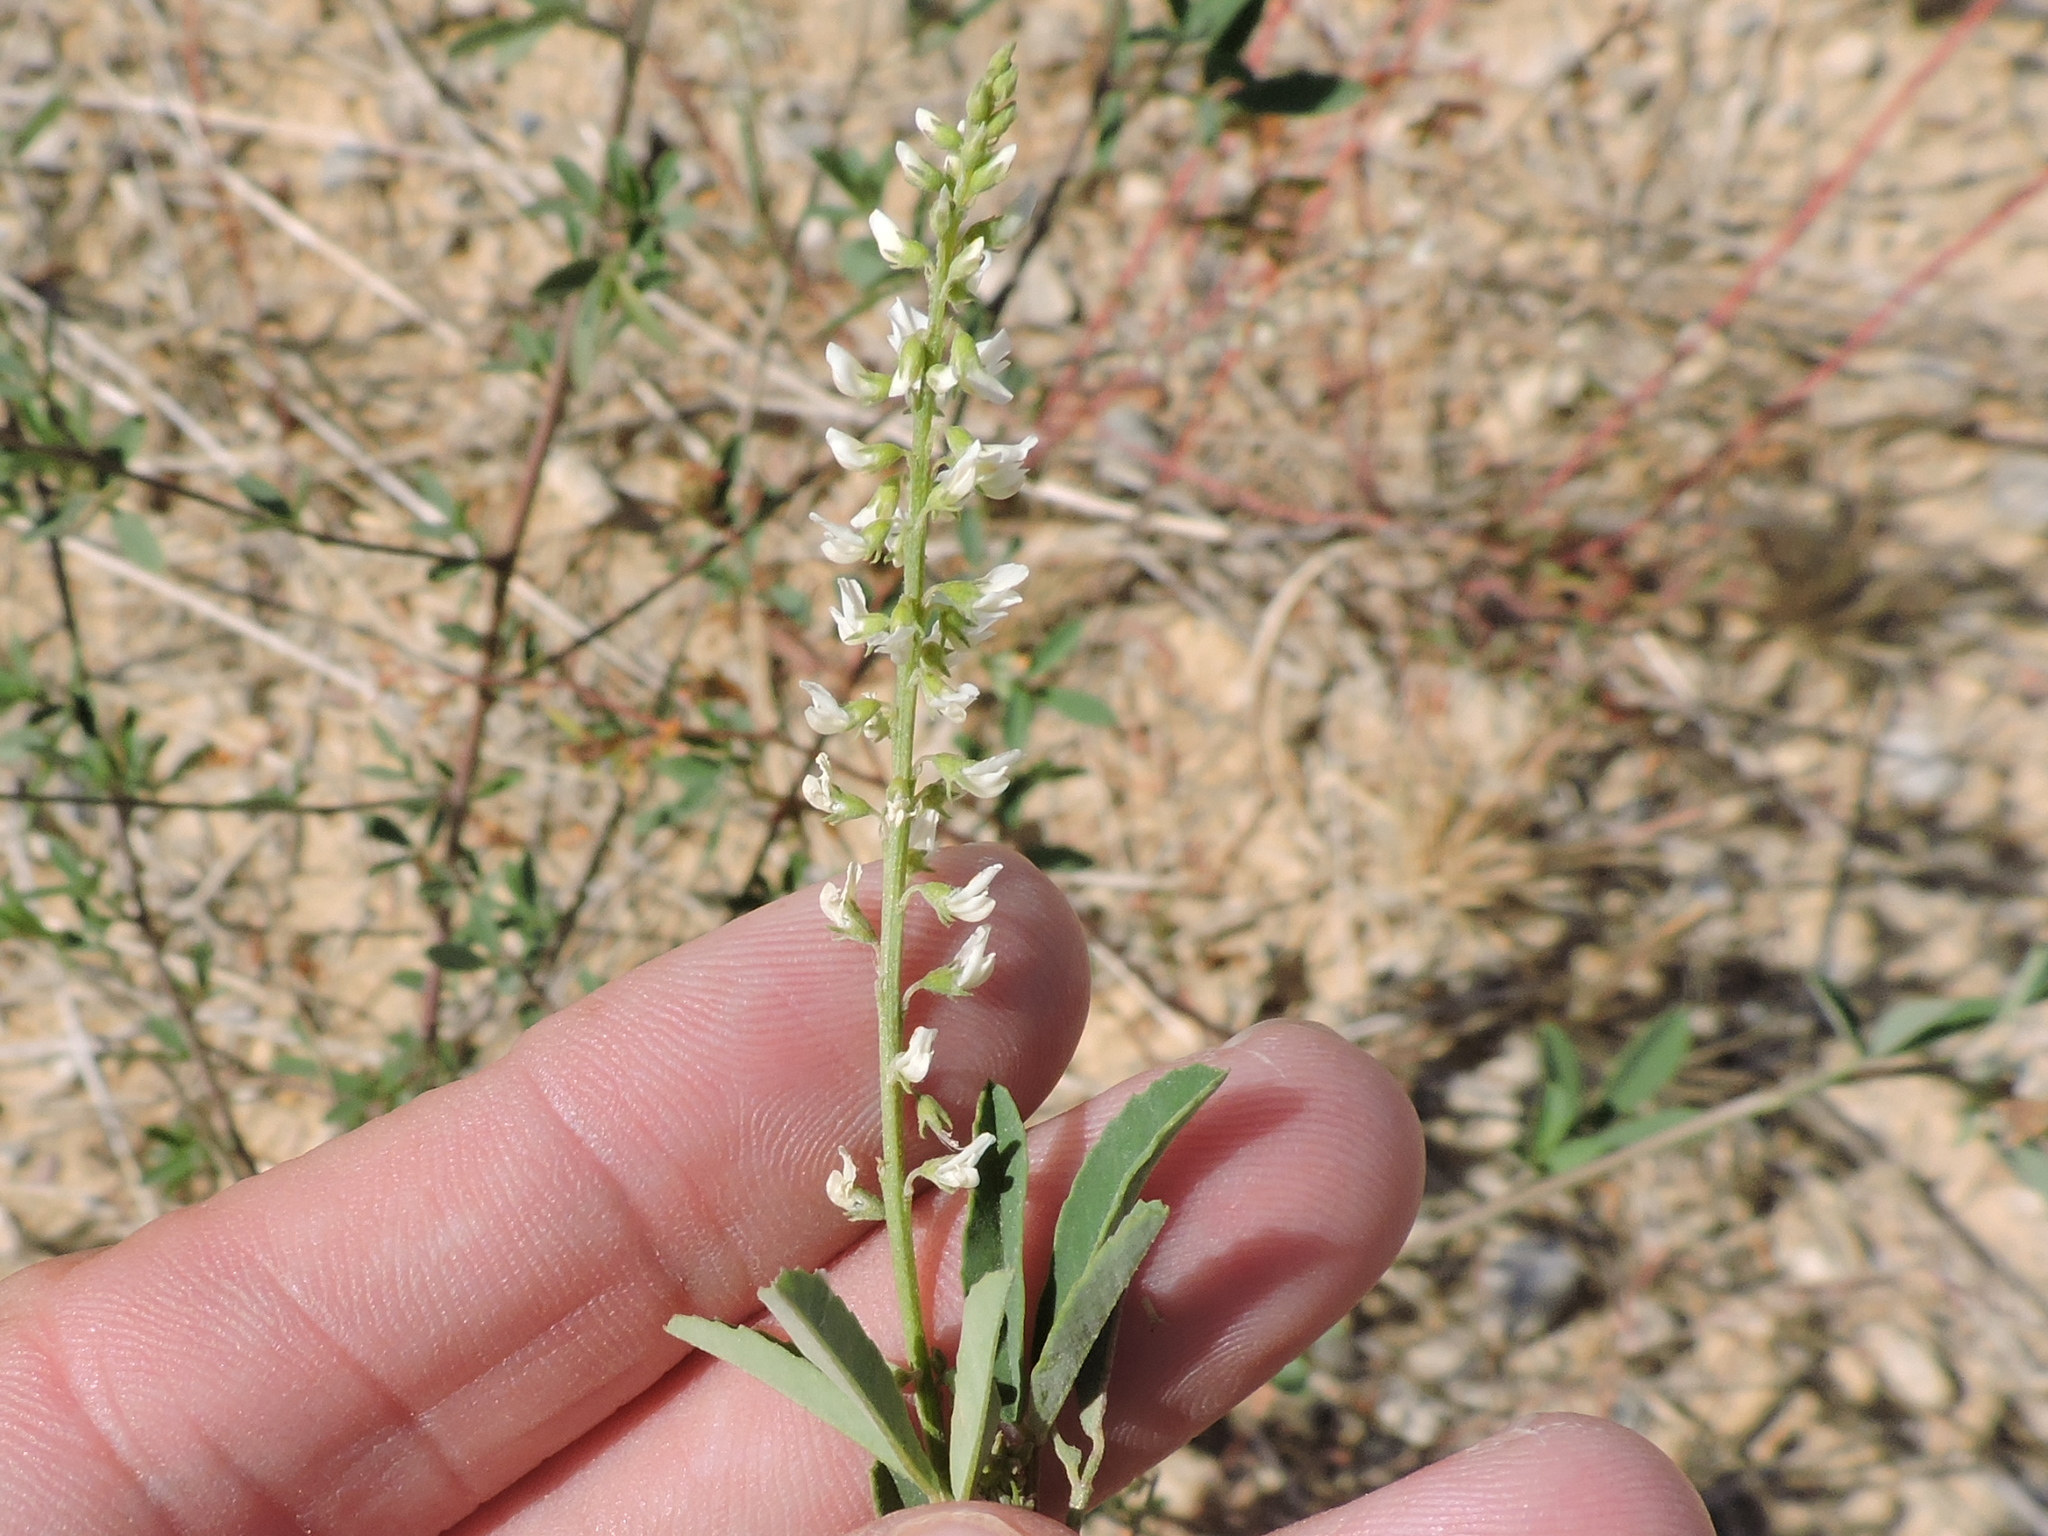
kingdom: Plantae
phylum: Tracheophyta
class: Magnoliopsida
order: Fabales
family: Fabaceae
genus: Melilotus
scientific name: Melilotus albus
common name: White melilot
